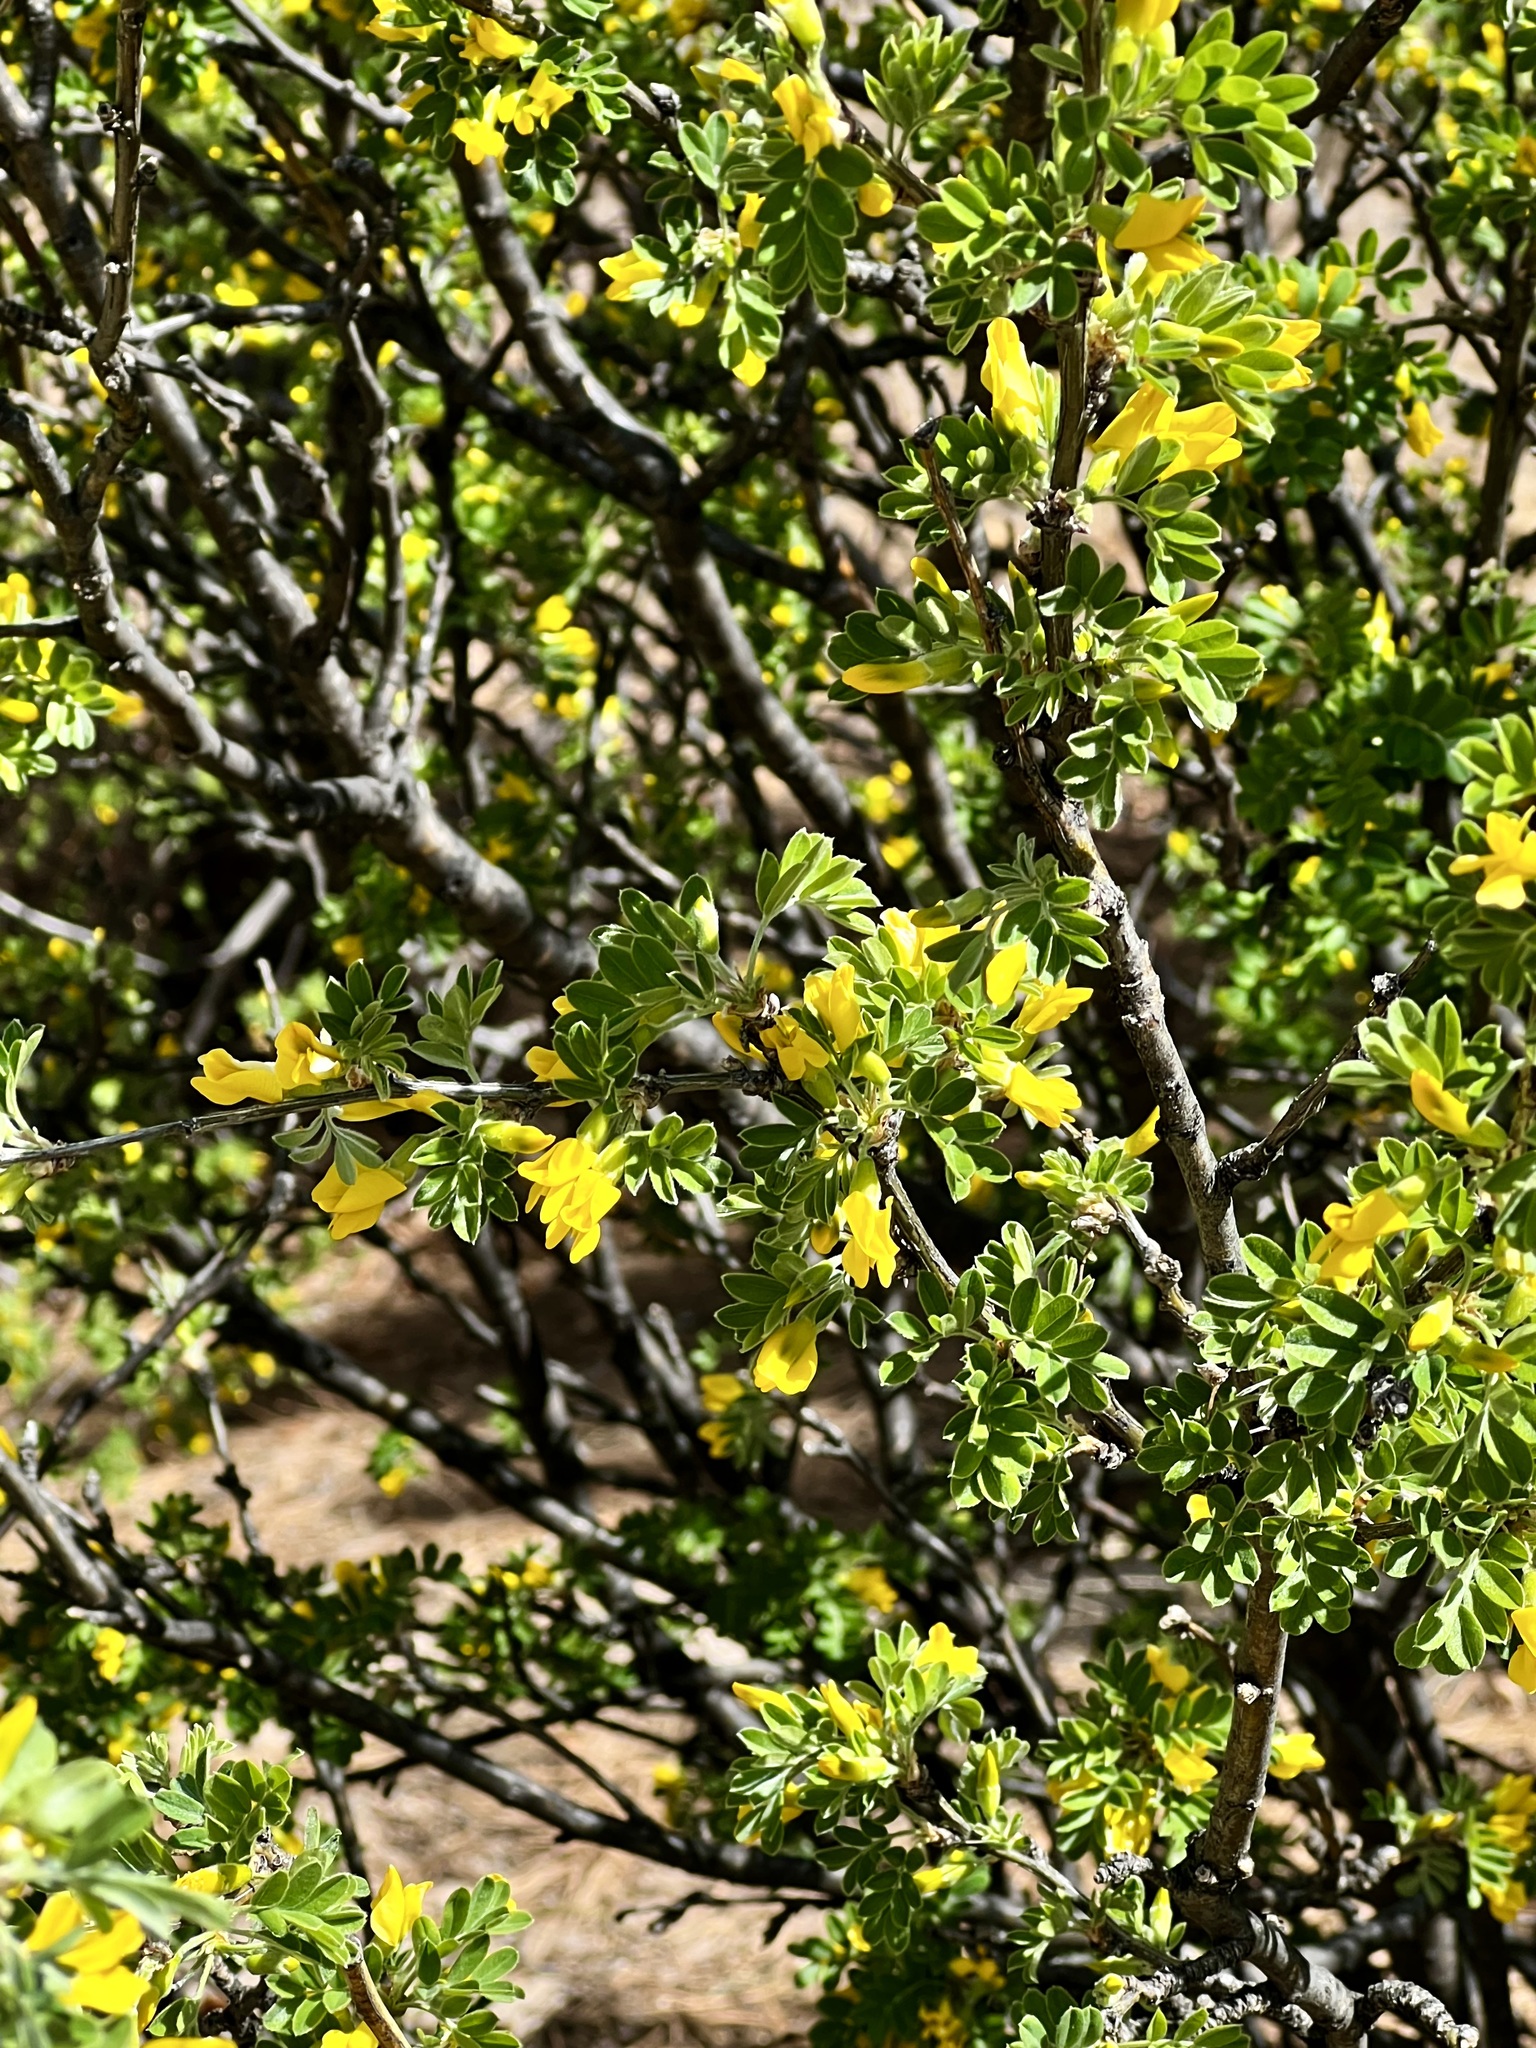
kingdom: Plantae
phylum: Tracheophyta
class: Magnoliopsida
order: Fabales
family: Fabaceae
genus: Caragana
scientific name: Caragana arborescens
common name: Siberian peashrub
